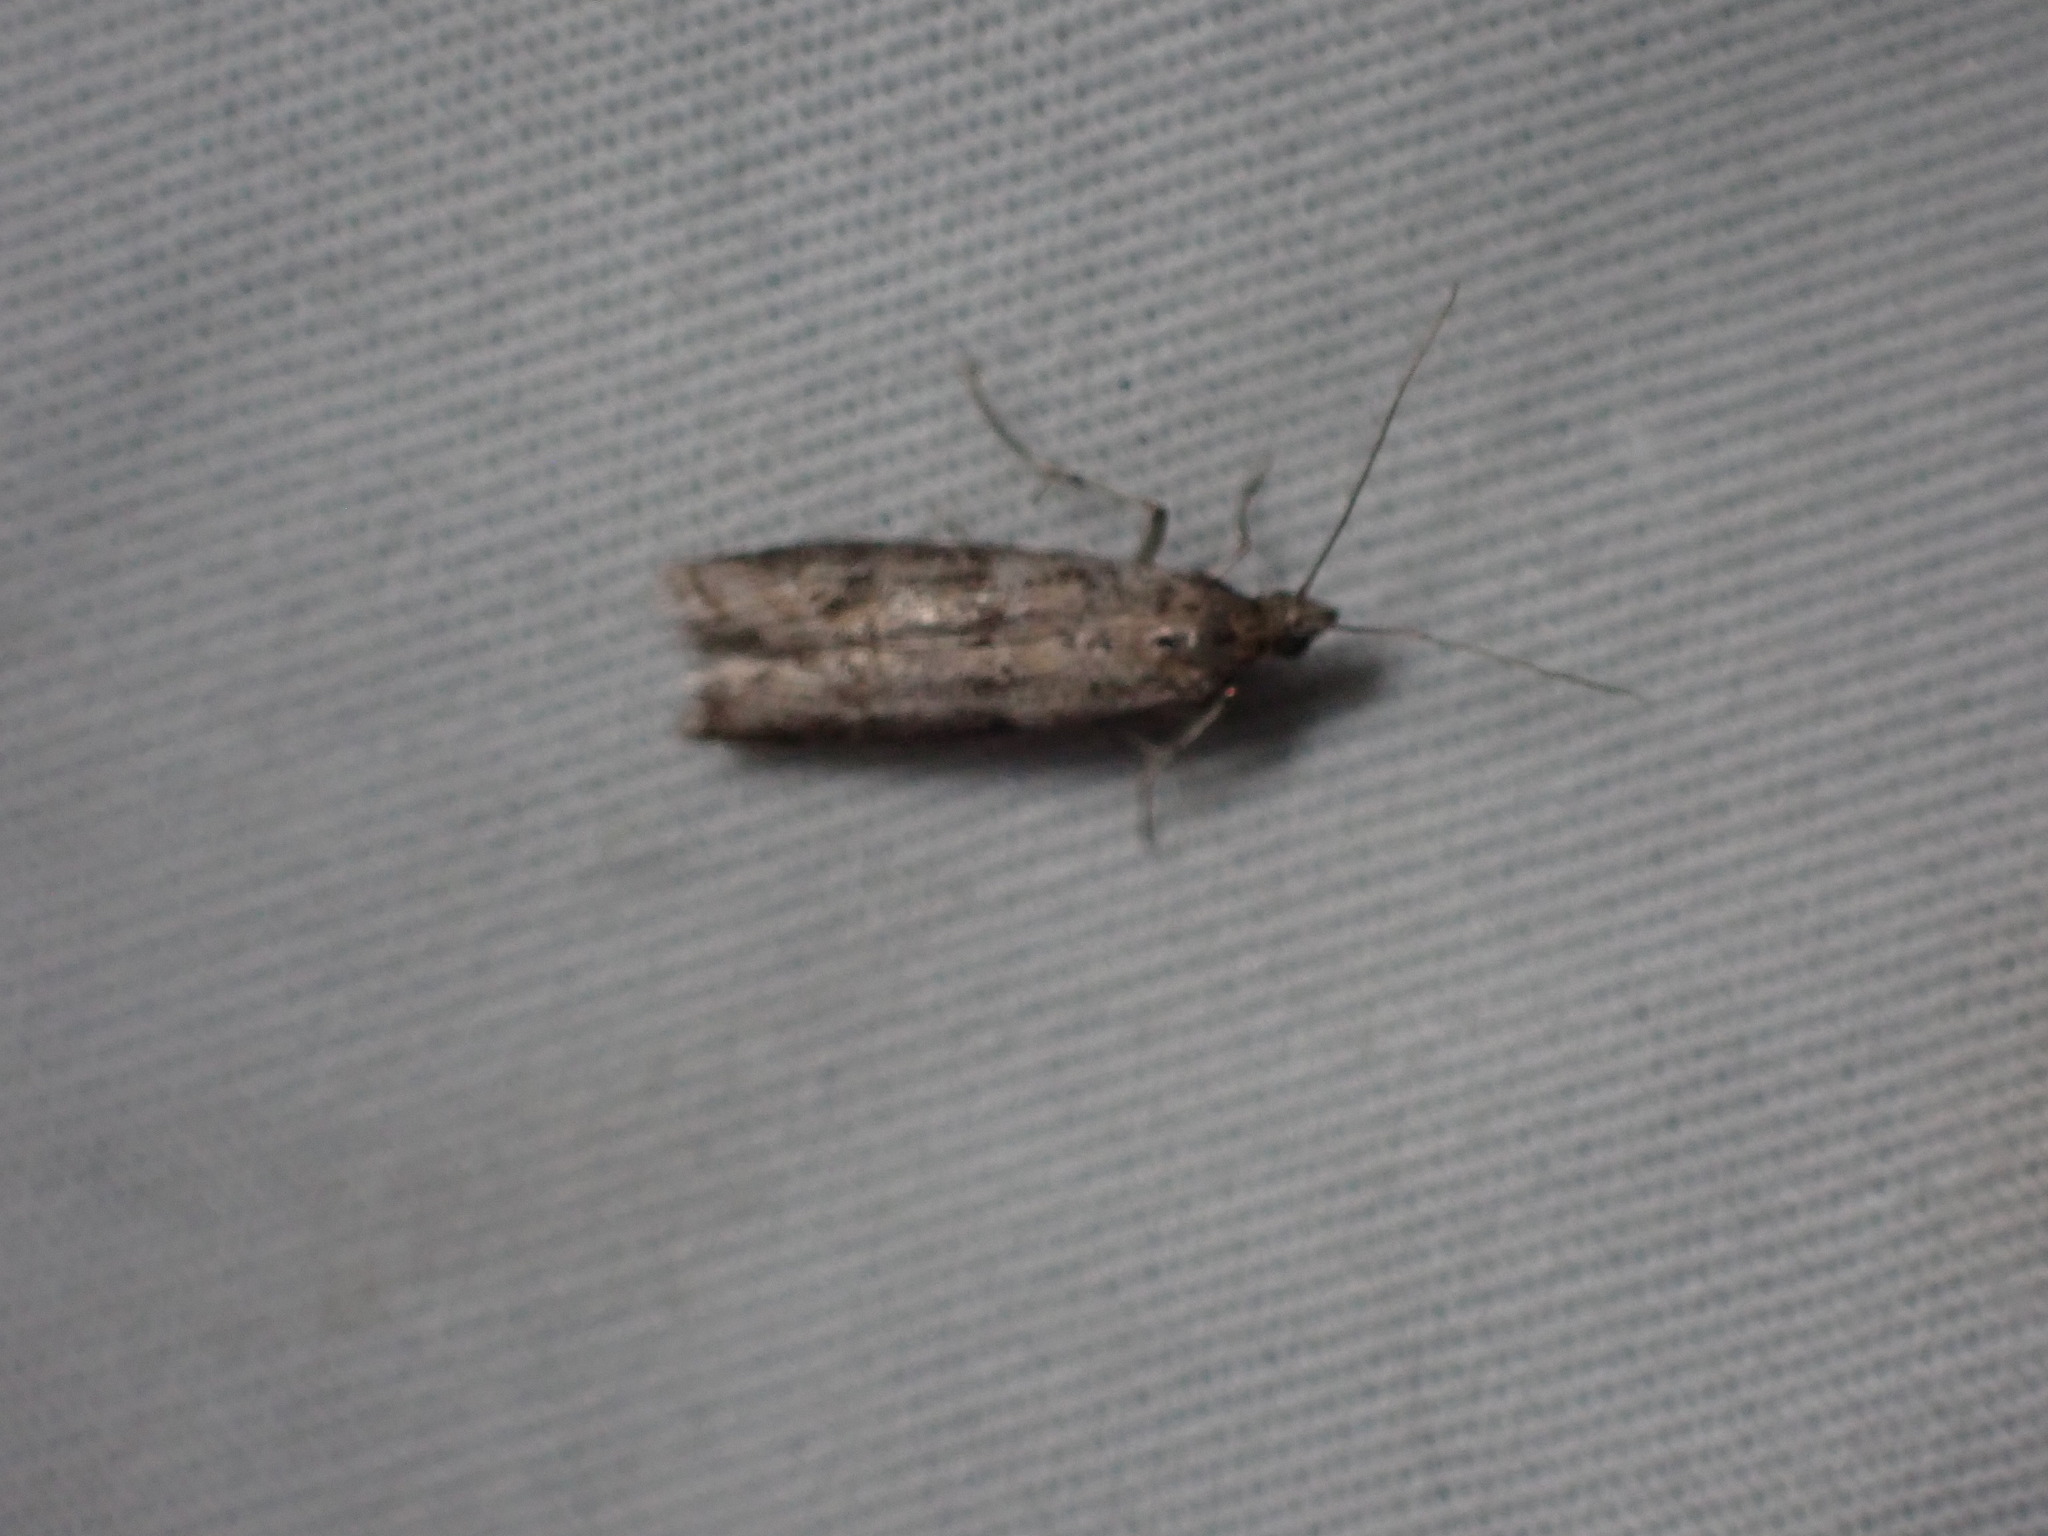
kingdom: Animalia
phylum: Arthropoda
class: Insecta
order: Lepidoptera
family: Pyralidae
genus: Ephestiodes
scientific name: Ephestiodes gilvescentella
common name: Moth
